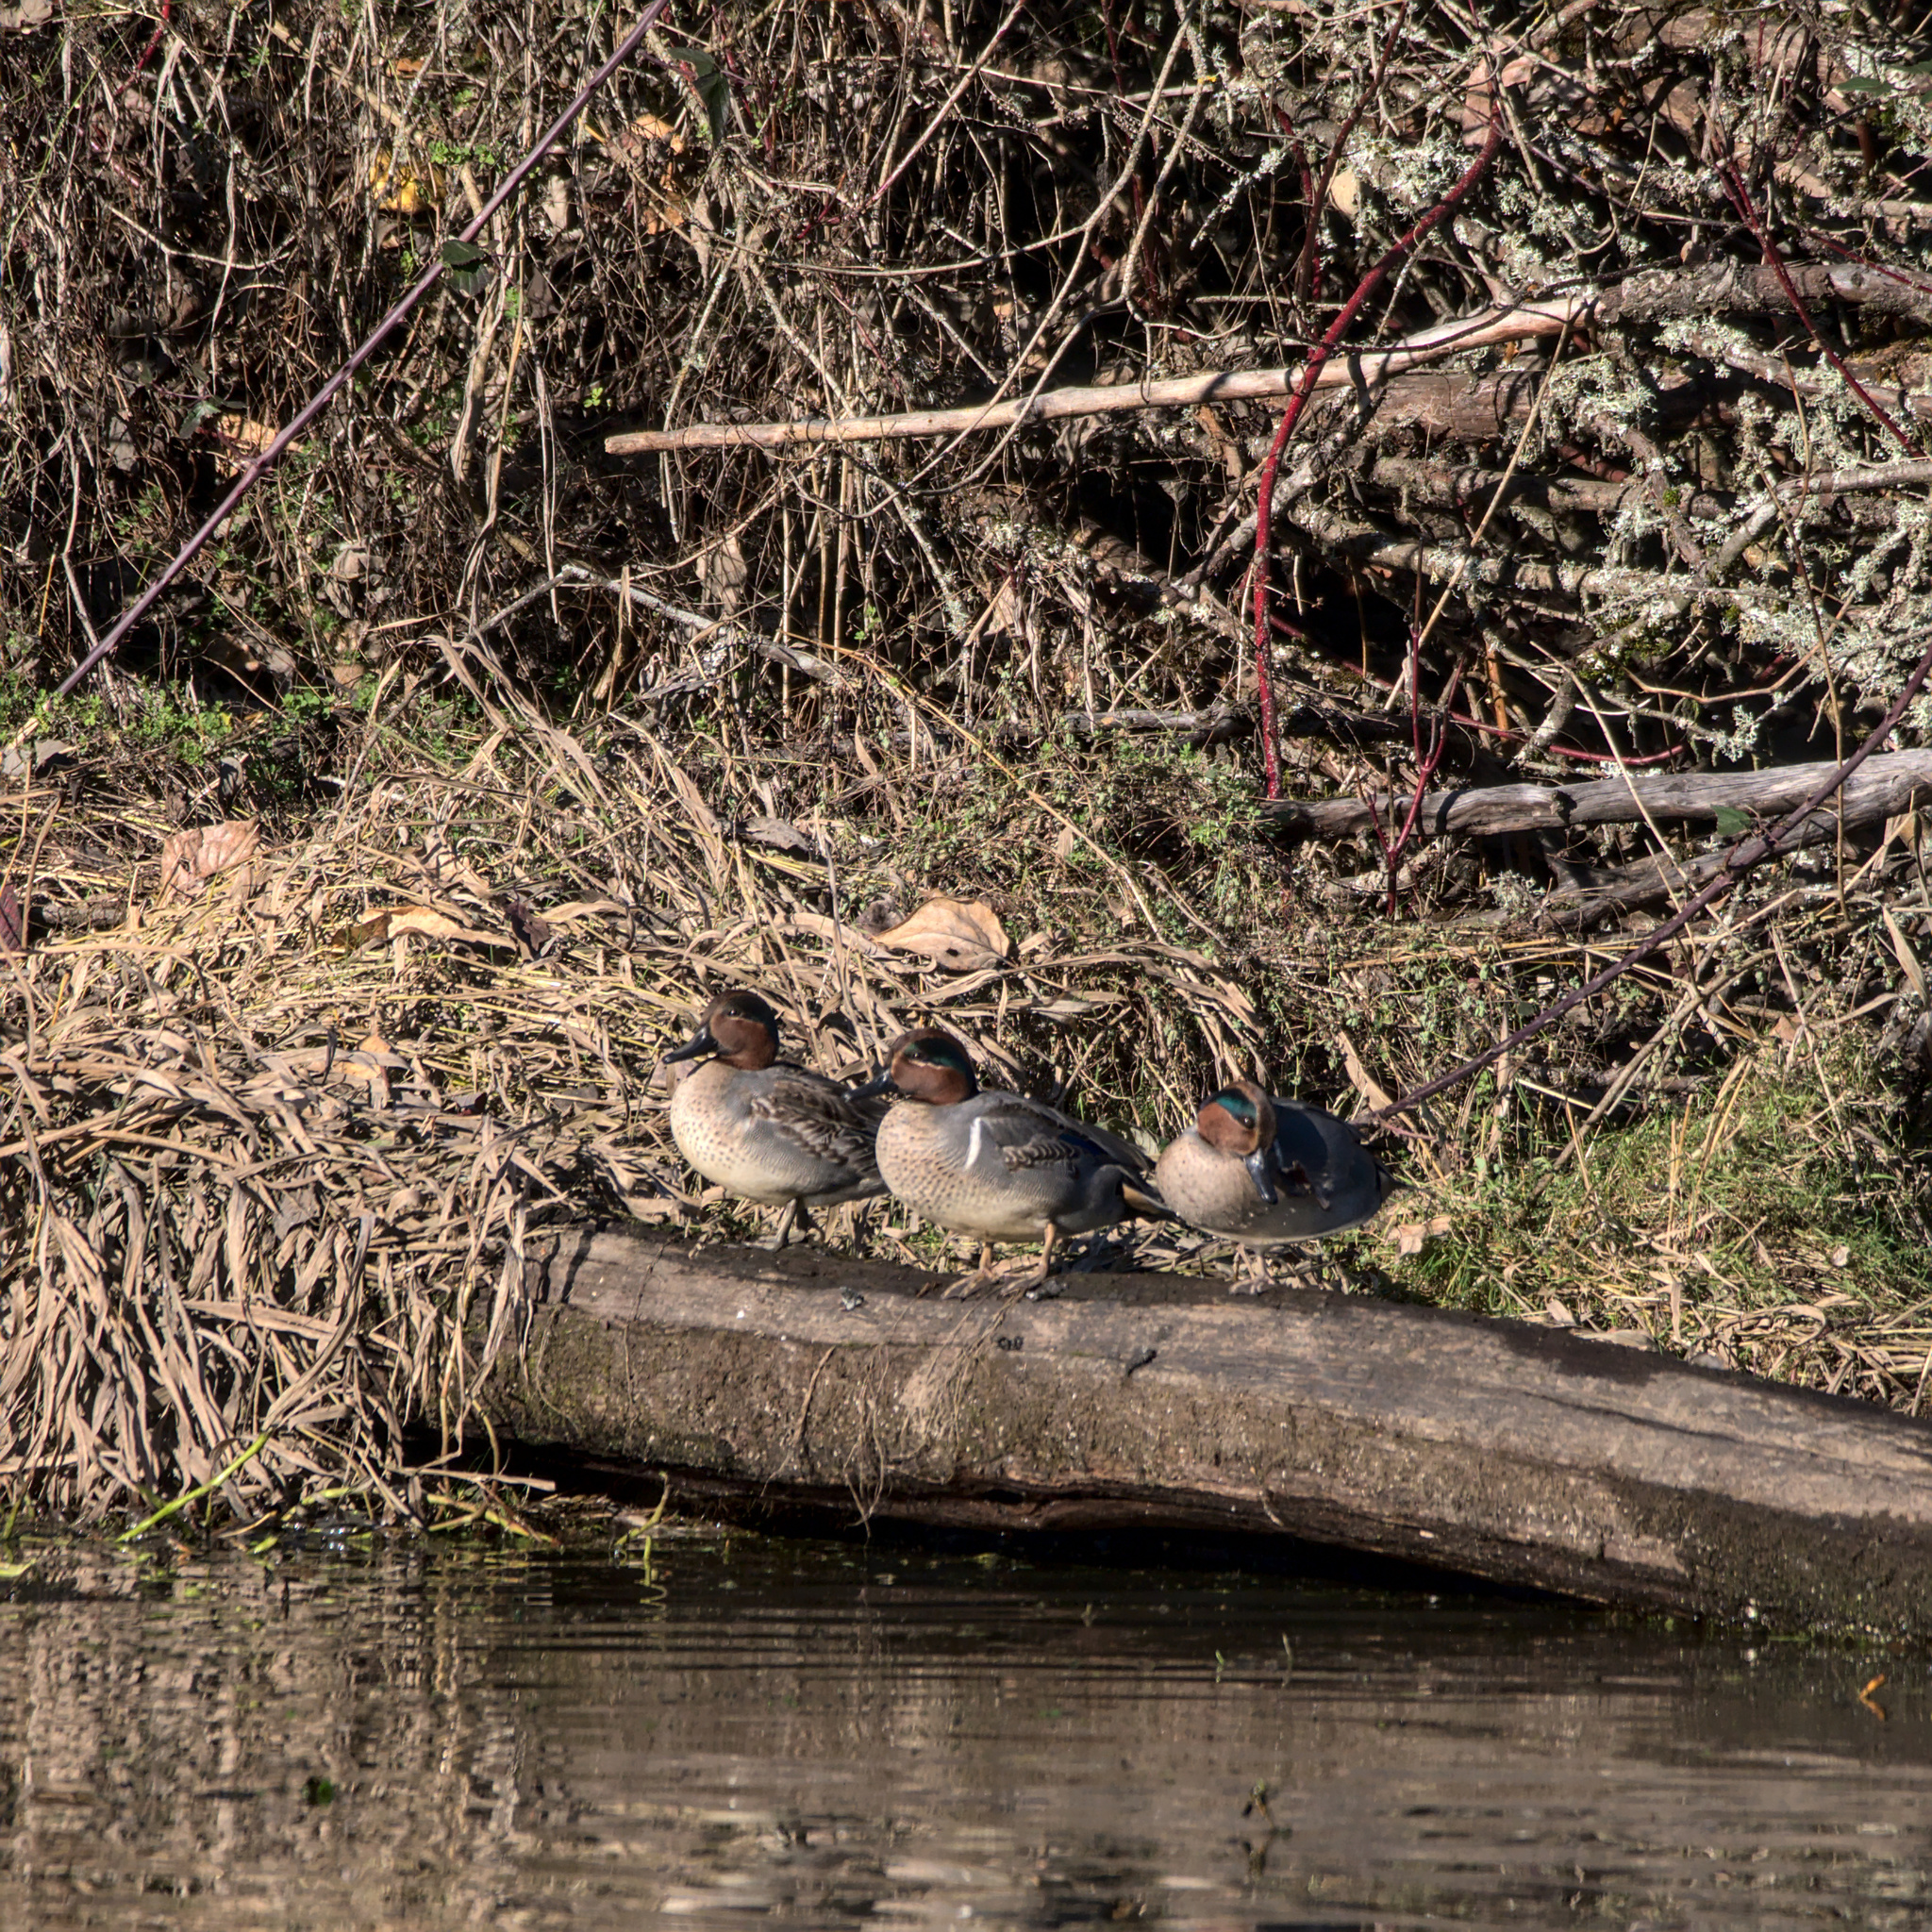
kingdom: Animalia
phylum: Chordata
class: Aves
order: Anseriformes
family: Anatidae
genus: Anas
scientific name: Anas crecca
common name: Eurasian teal
